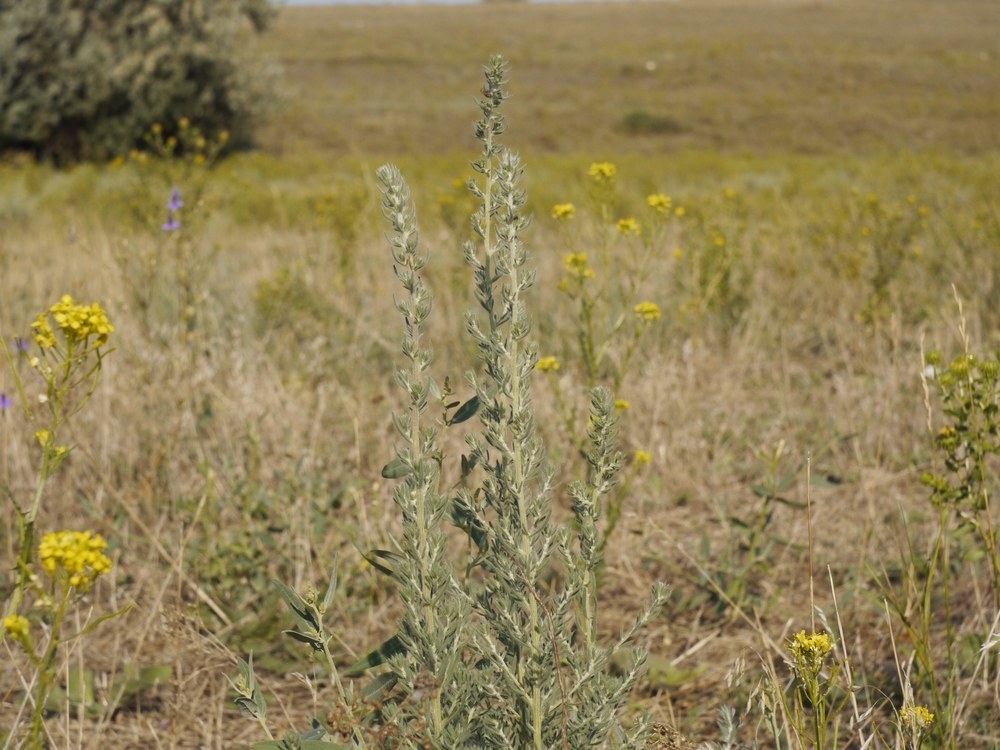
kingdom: Plantae
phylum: Tracheophyta
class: Magnoliopsida
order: Caryophyllales
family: Amaranthaceae
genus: Sedobassia
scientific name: Sedobassia sedoides
